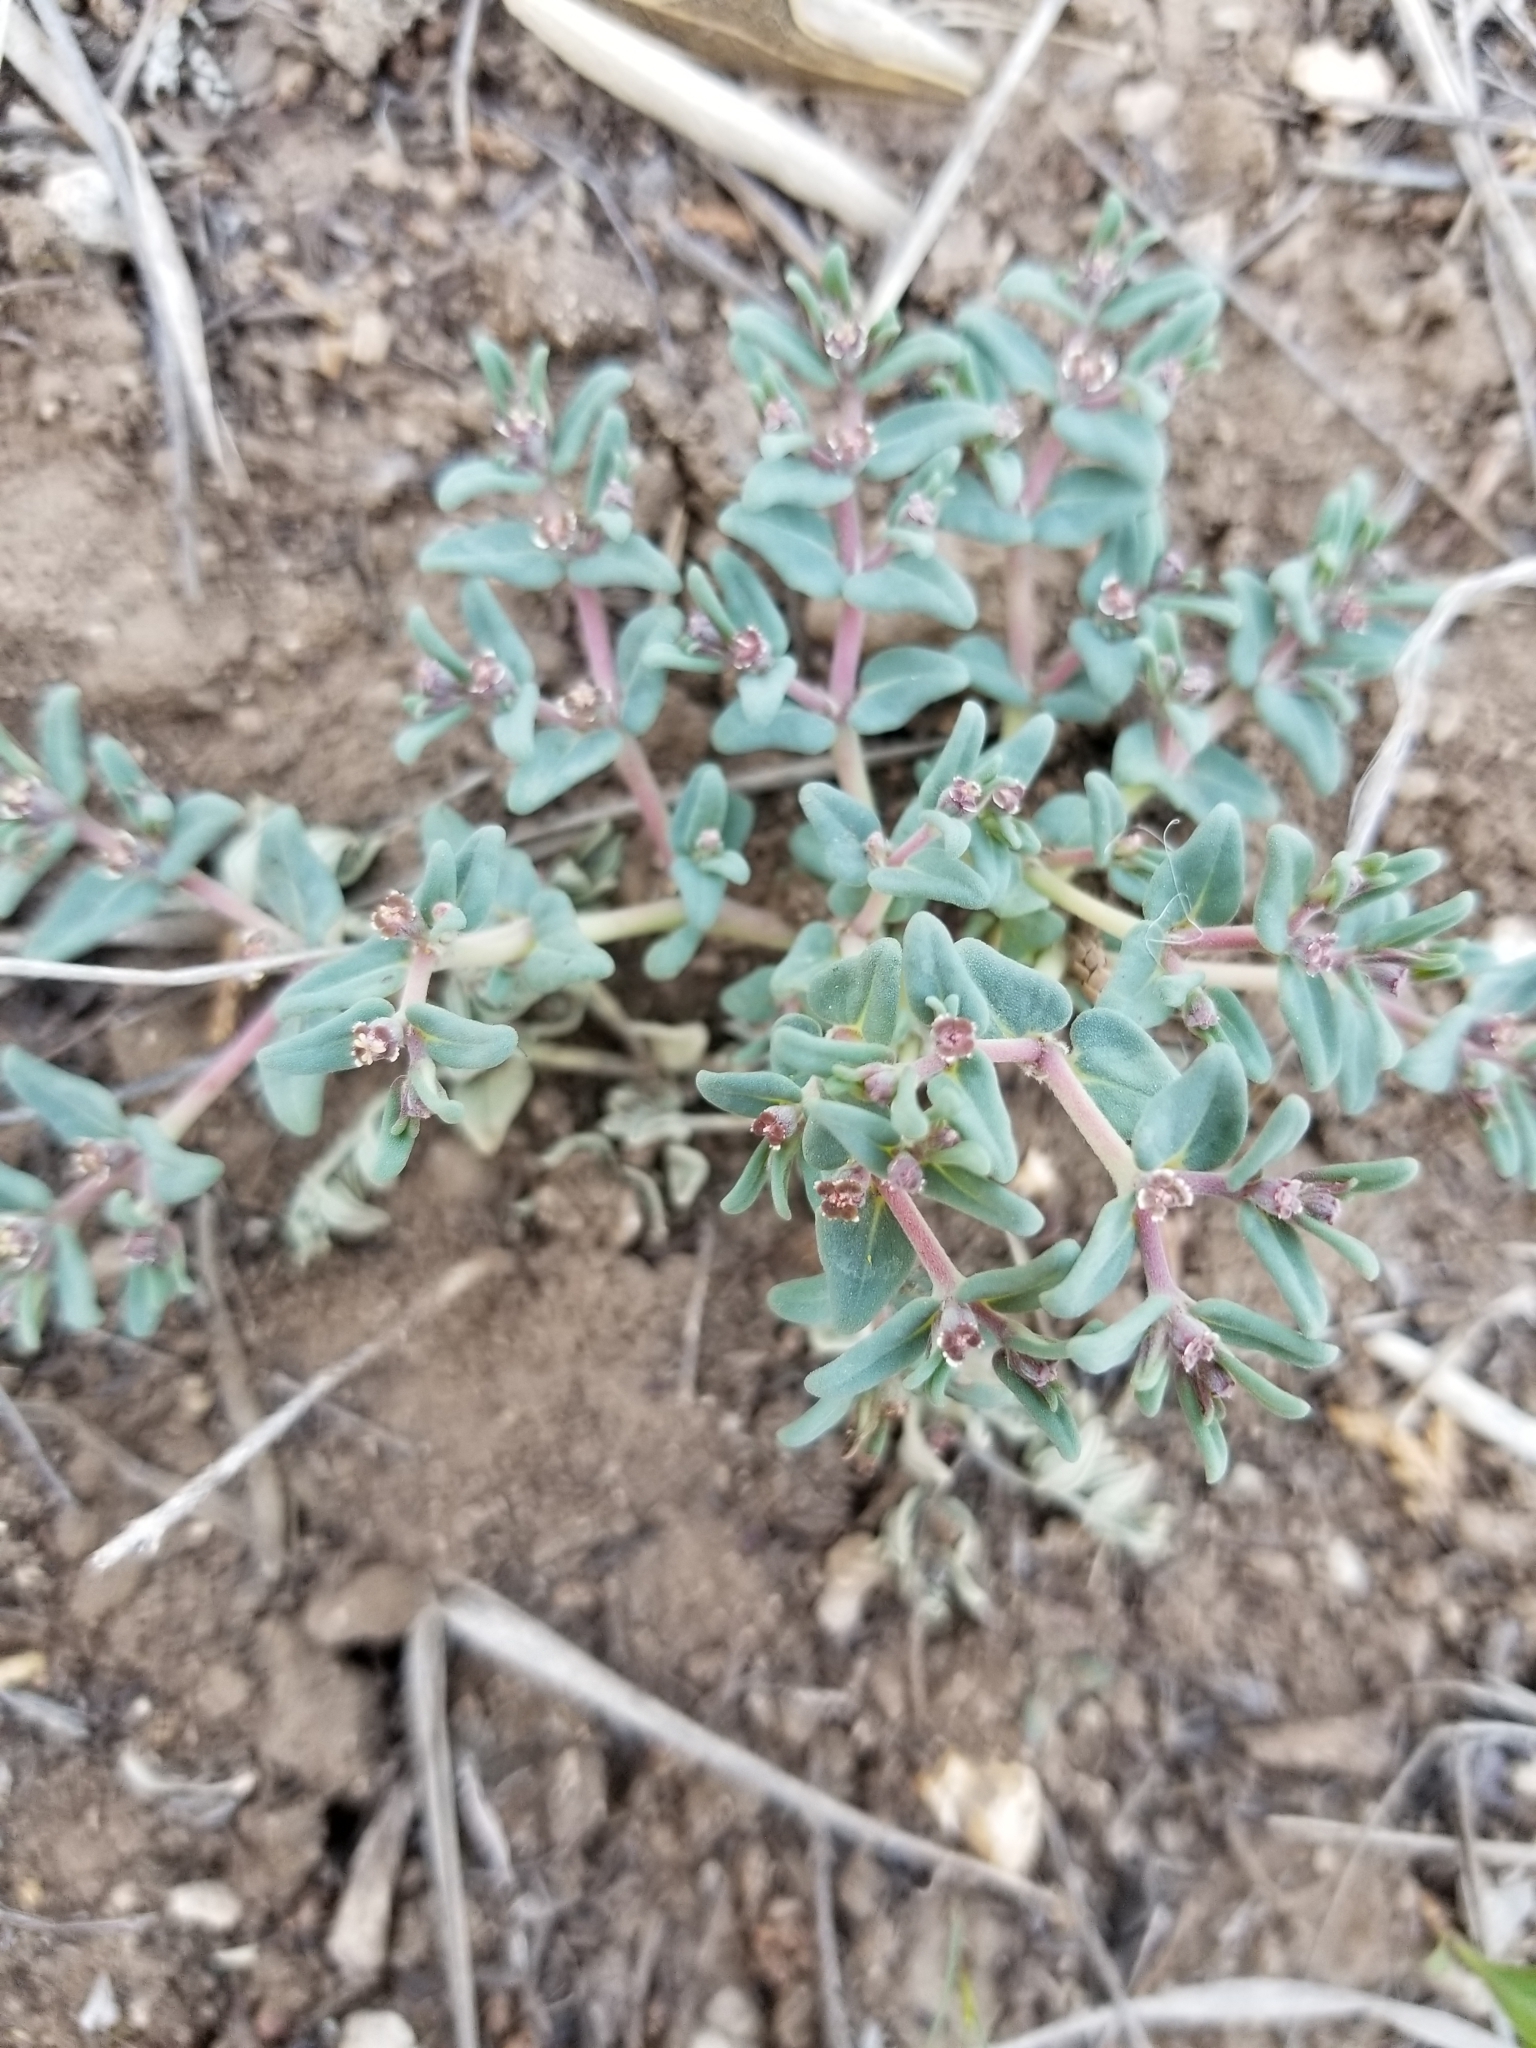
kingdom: Plantae
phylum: Tracheophyta
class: Magnoliopsida
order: Malpighiales
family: Euphorbiaceae
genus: Euphorbia
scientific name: Euphorbia lata
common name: Hoary euphorbia
